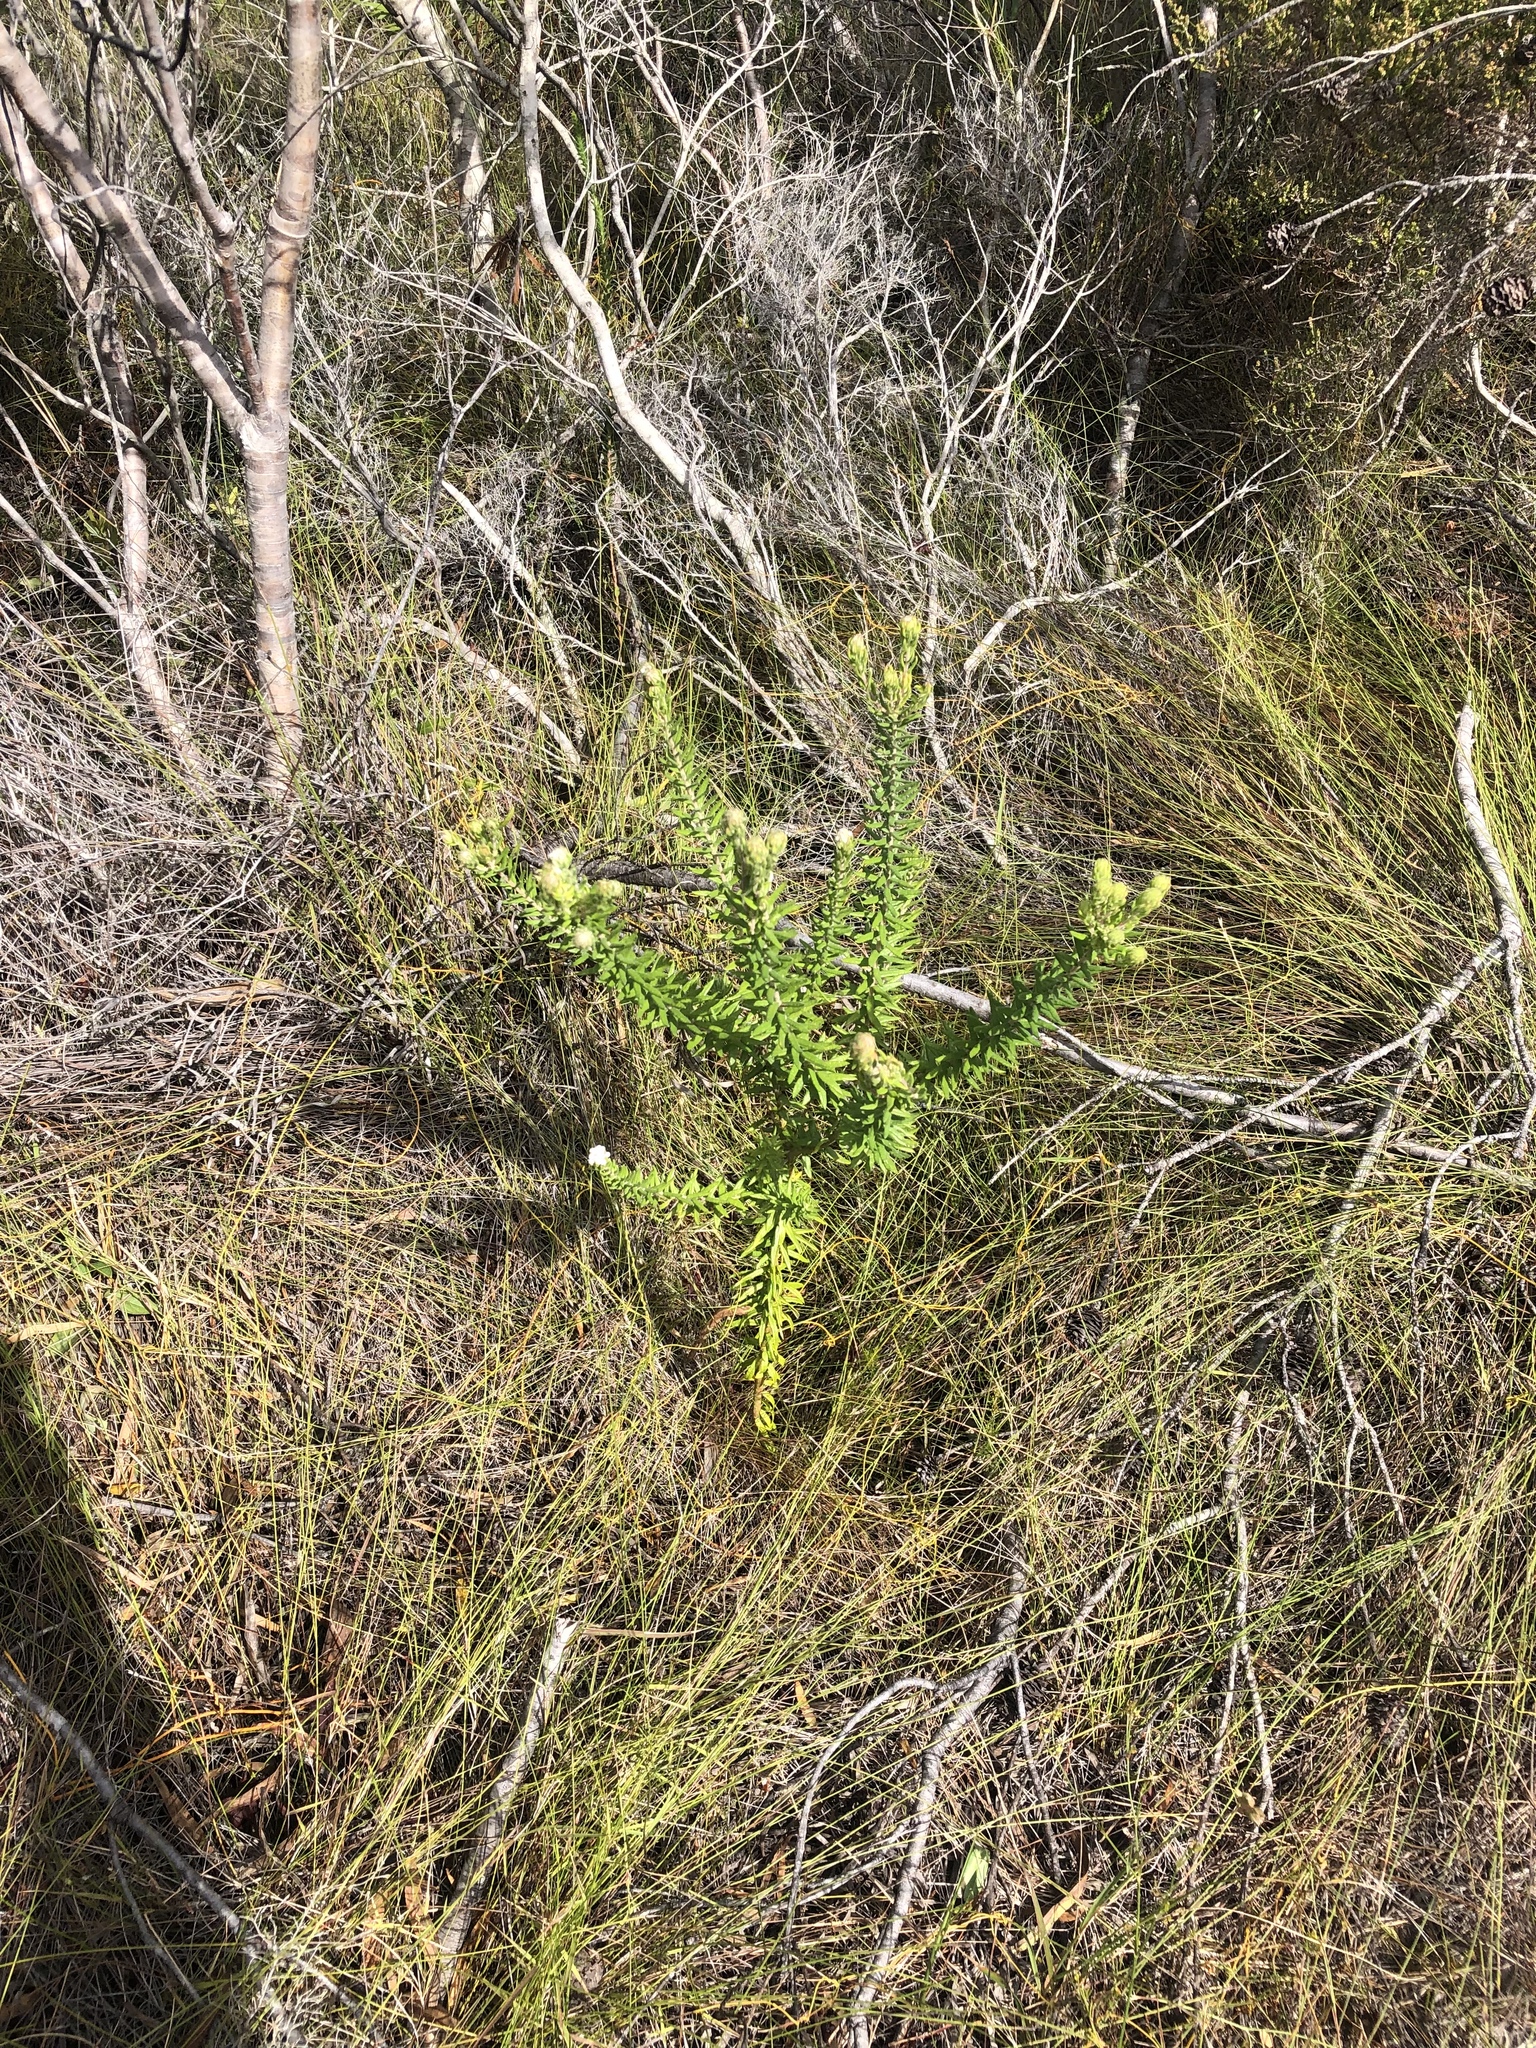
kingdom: Plantae
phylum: Tracheophyta
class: Magnoliopsida
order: Rosales
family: Rhamnaceae
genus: Phylica
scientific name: Phylica pinea
